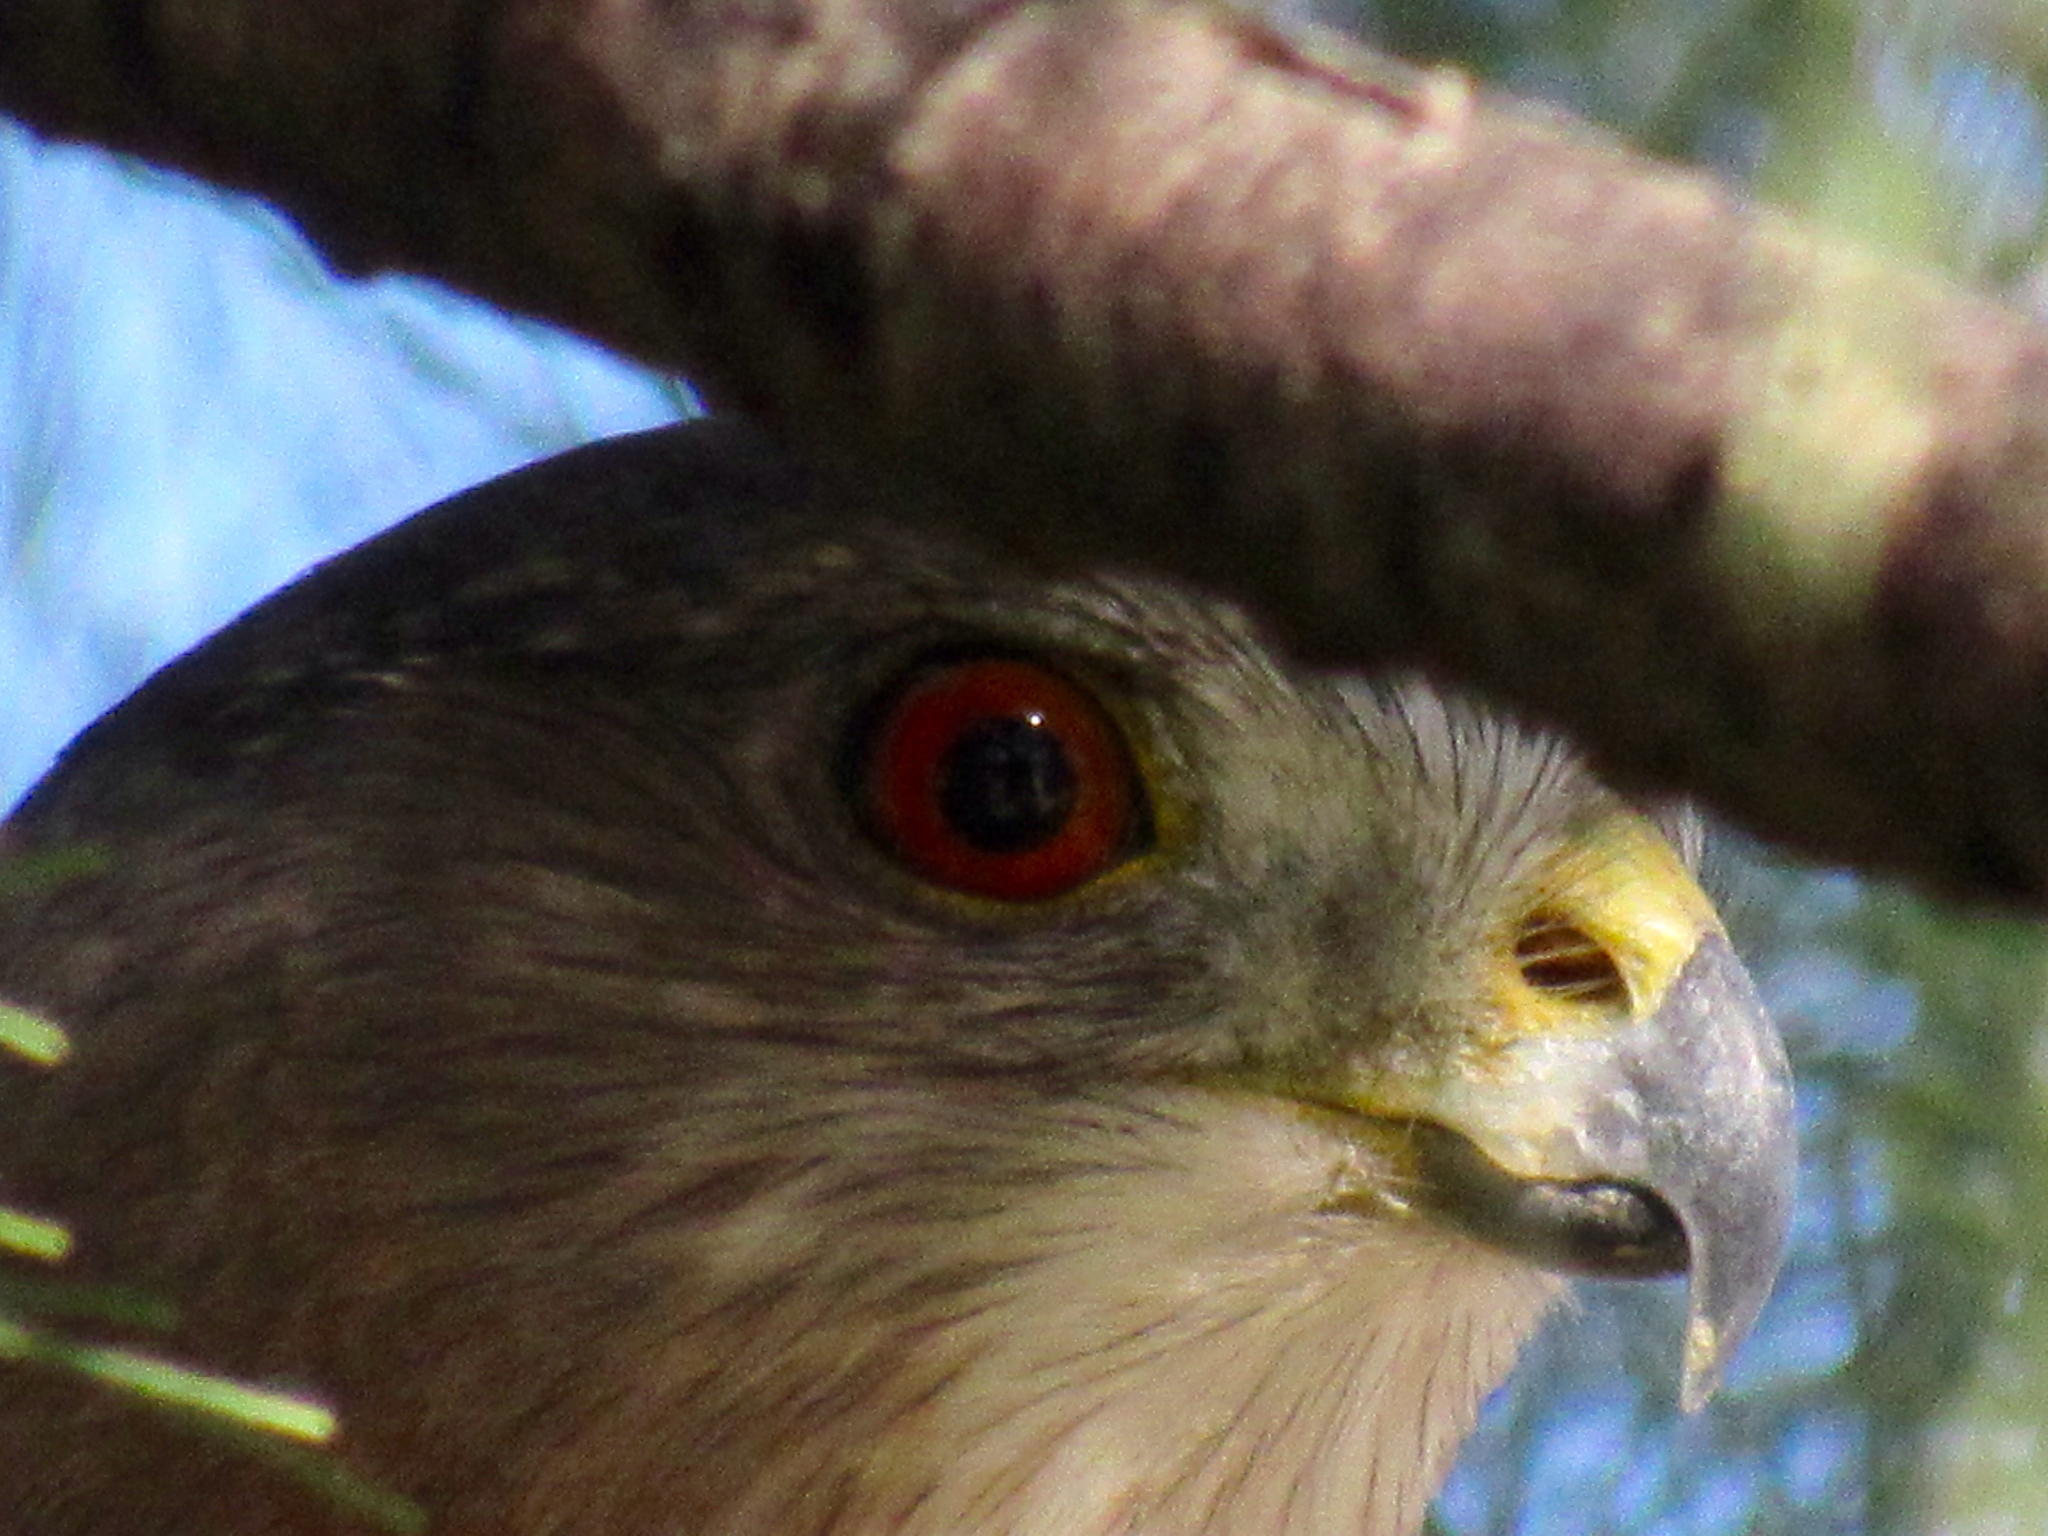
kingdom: Animalia
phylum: Chordata
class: Aves
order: Accipitriformes
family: Accipitridae
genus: Accipiter
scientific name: Accipiter cooperii
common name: Cooper's hawk
